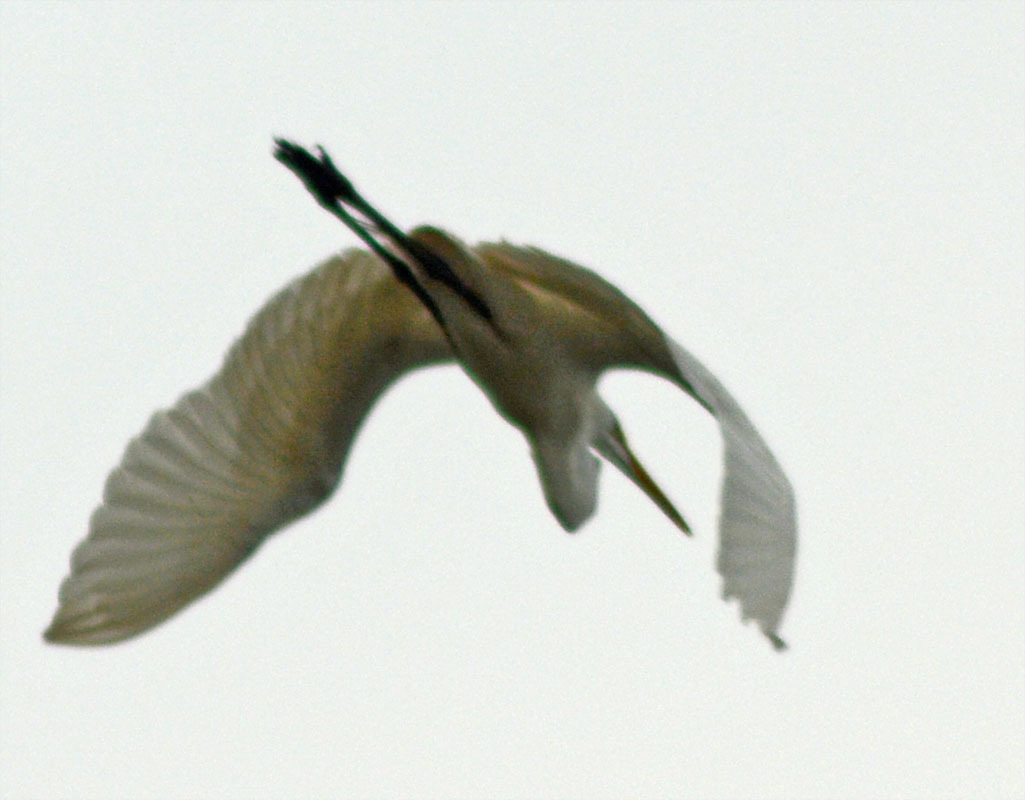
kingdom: Animalia
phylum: Chordata
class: Aves
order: Pelecaniformes
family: Ardeidae
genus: Ardea
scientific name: Ardea alba
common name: Great egret
